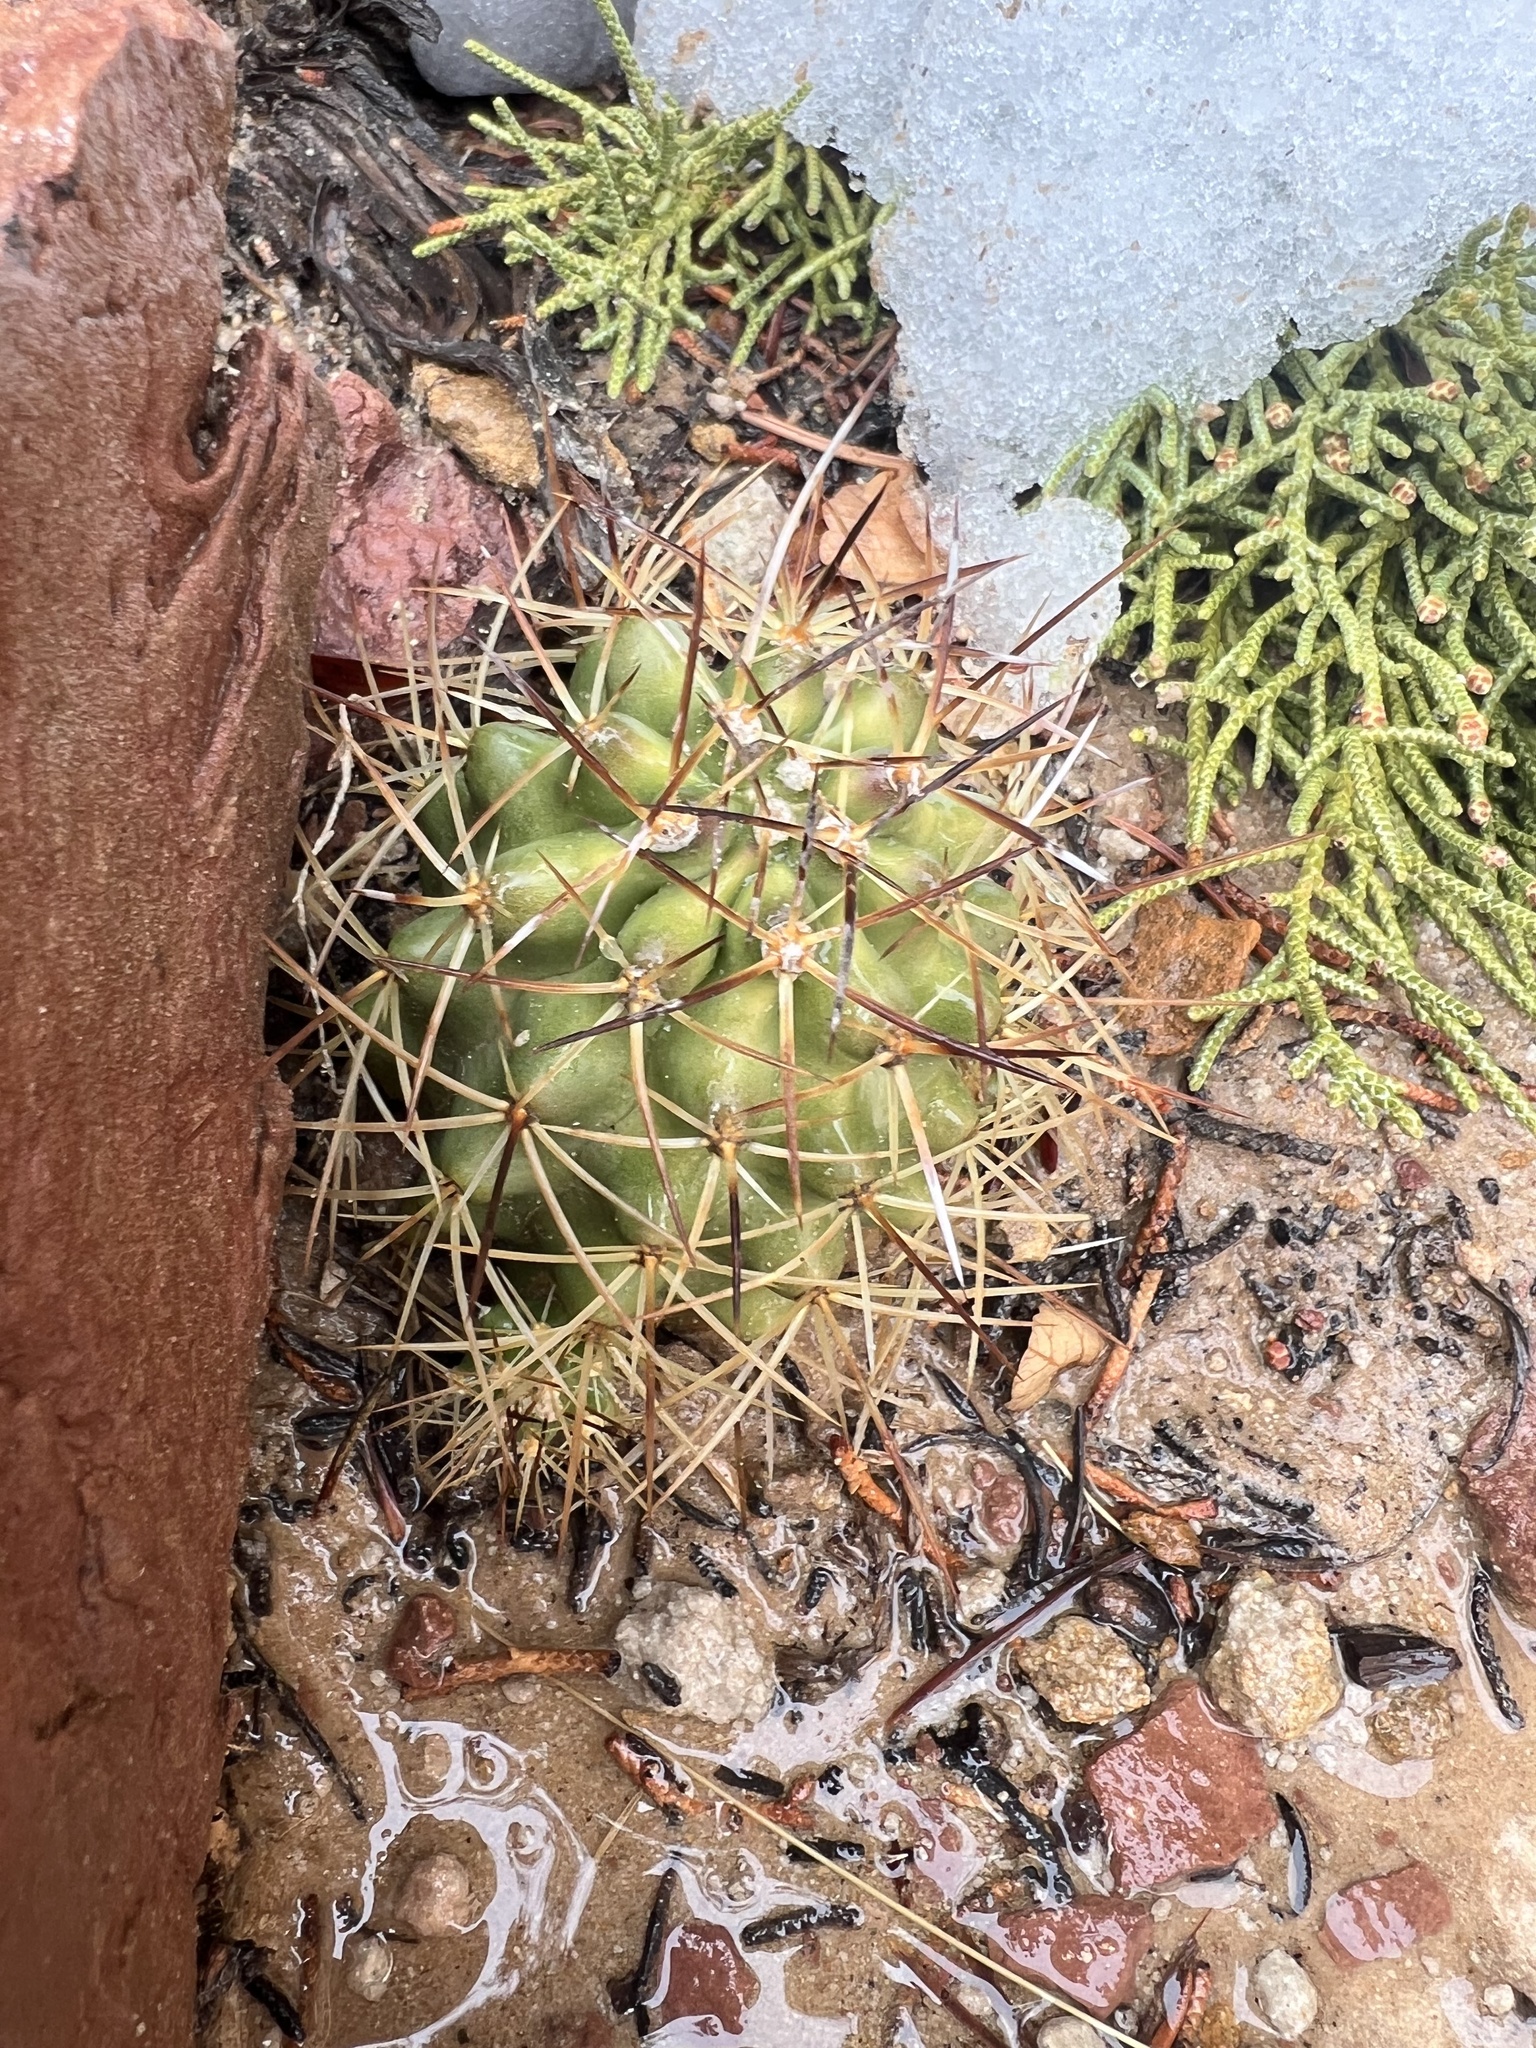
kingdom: Plantae
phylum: Tracheophyta
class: Magnoliopsida
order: Caryophyllales
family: Cactaceae
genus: Echinocereus
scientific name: Echinocereus triglochidiatus
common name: Claretcup hedgehog
